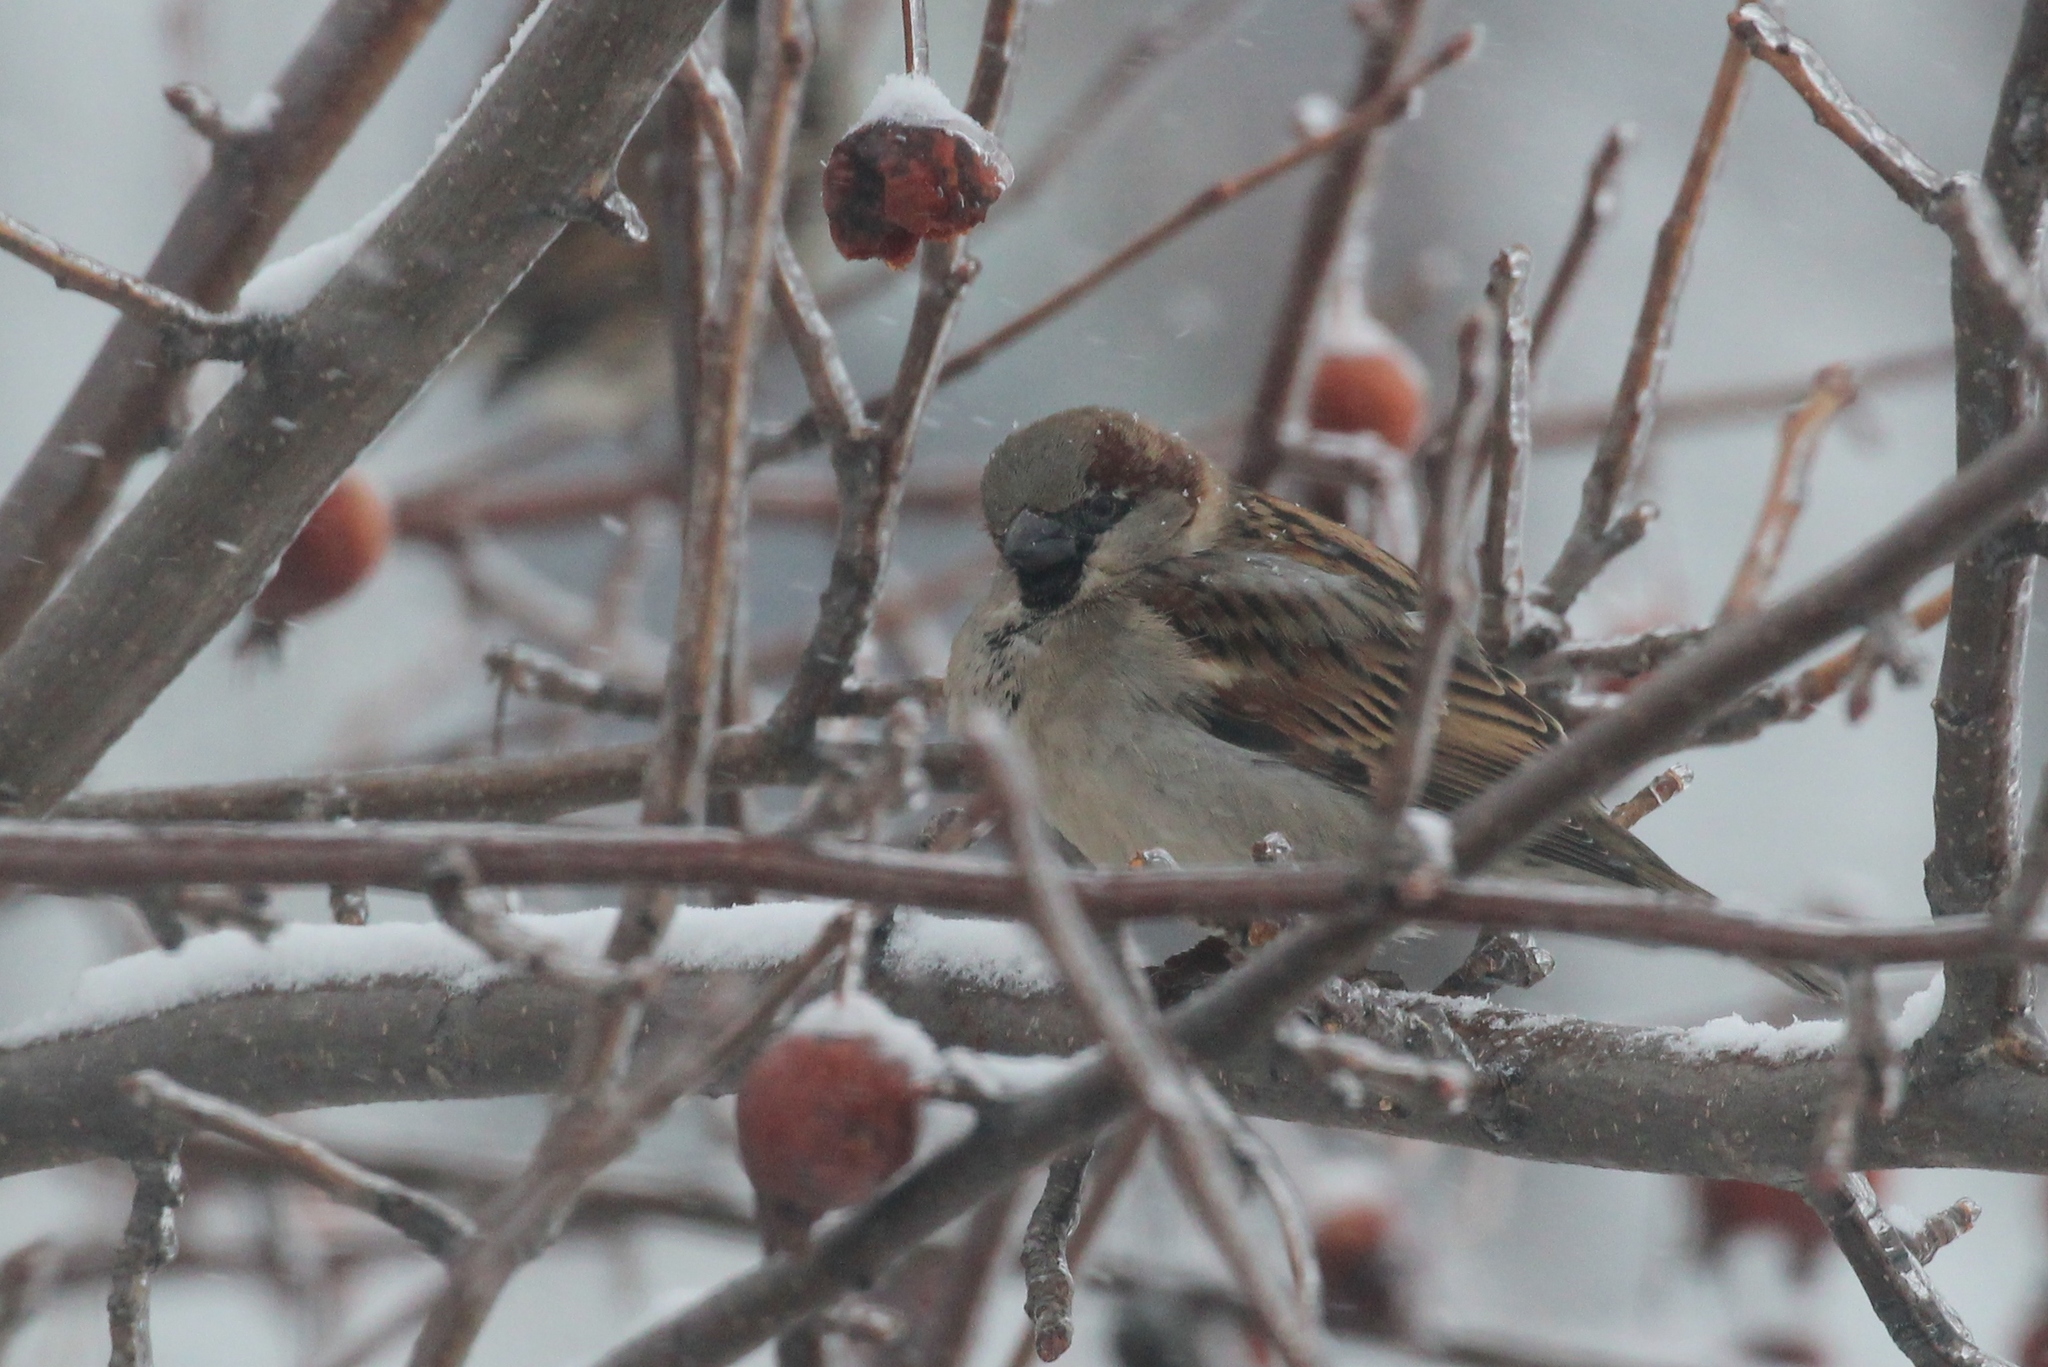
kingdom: Animalia
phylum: Chordata
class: Aves
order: Passeriformes
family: Passeridae
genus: Passer
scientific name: Passer domesticus
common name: House sparrow
